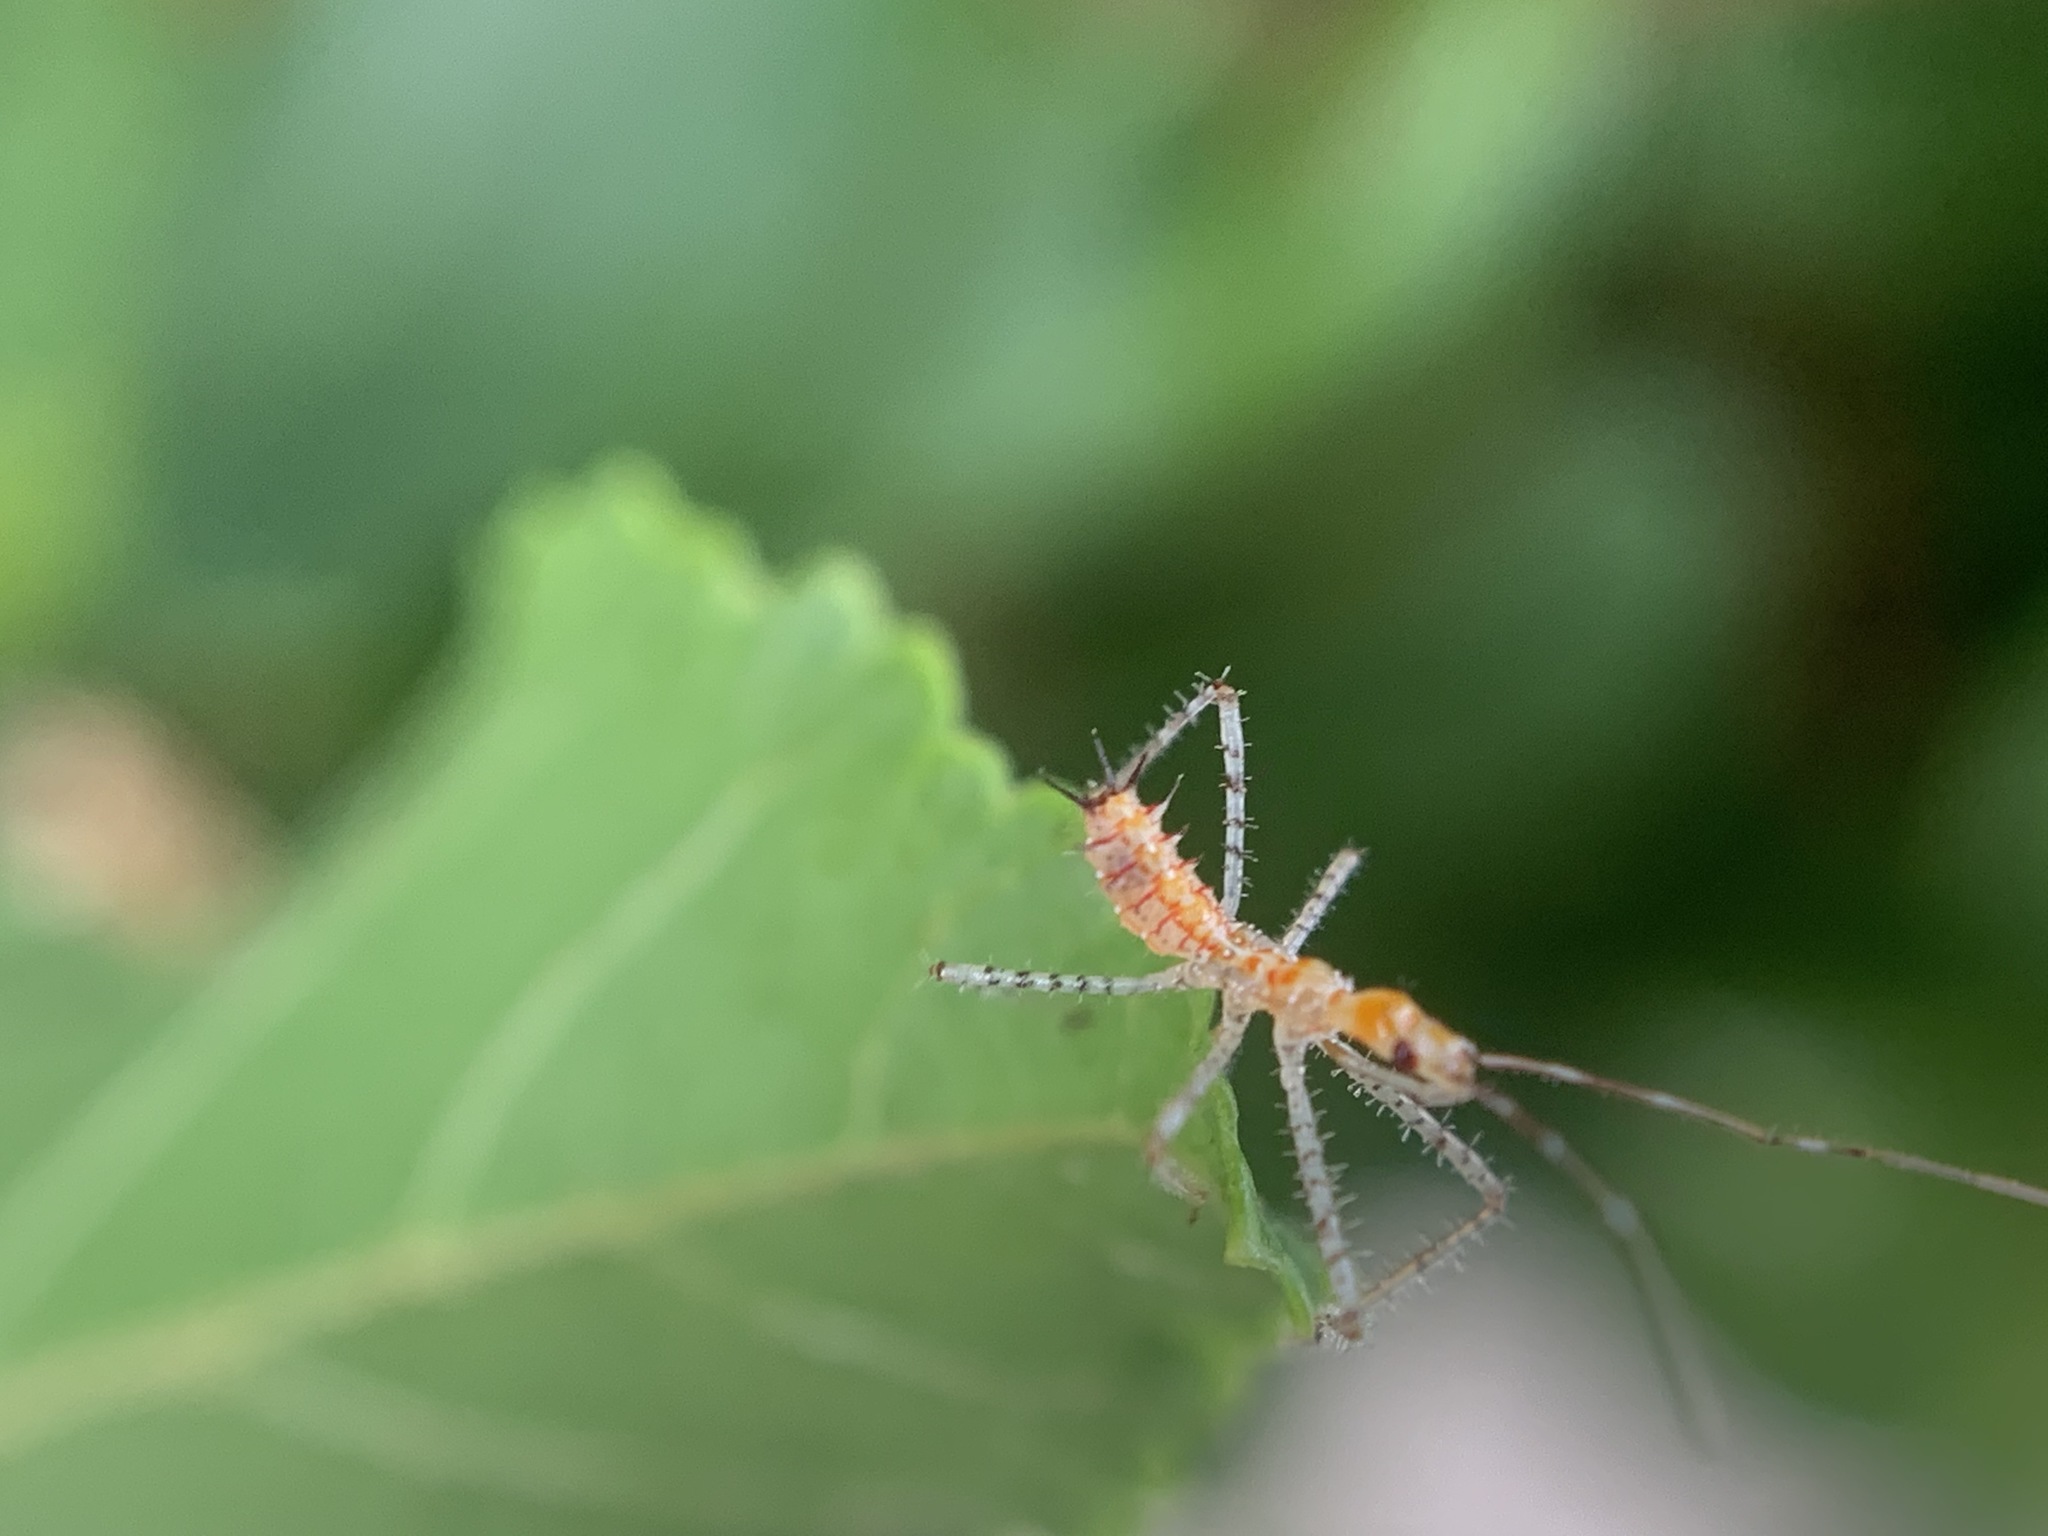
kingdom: Animalia
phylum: Arthropoda
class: Insecta
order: Hemiptera
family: Reduviidae
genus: Zelus
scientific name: Zelus renardii
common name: Assassin bug
